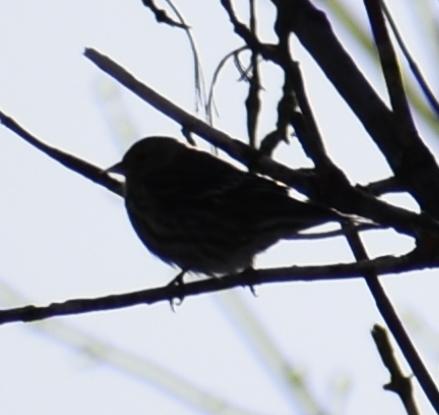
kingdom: Animalia
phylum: Chordata
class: Aves
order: Passeriformes
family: Fringillidae
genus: Spinus
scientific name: Spinus pinus
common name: Pine siskin
